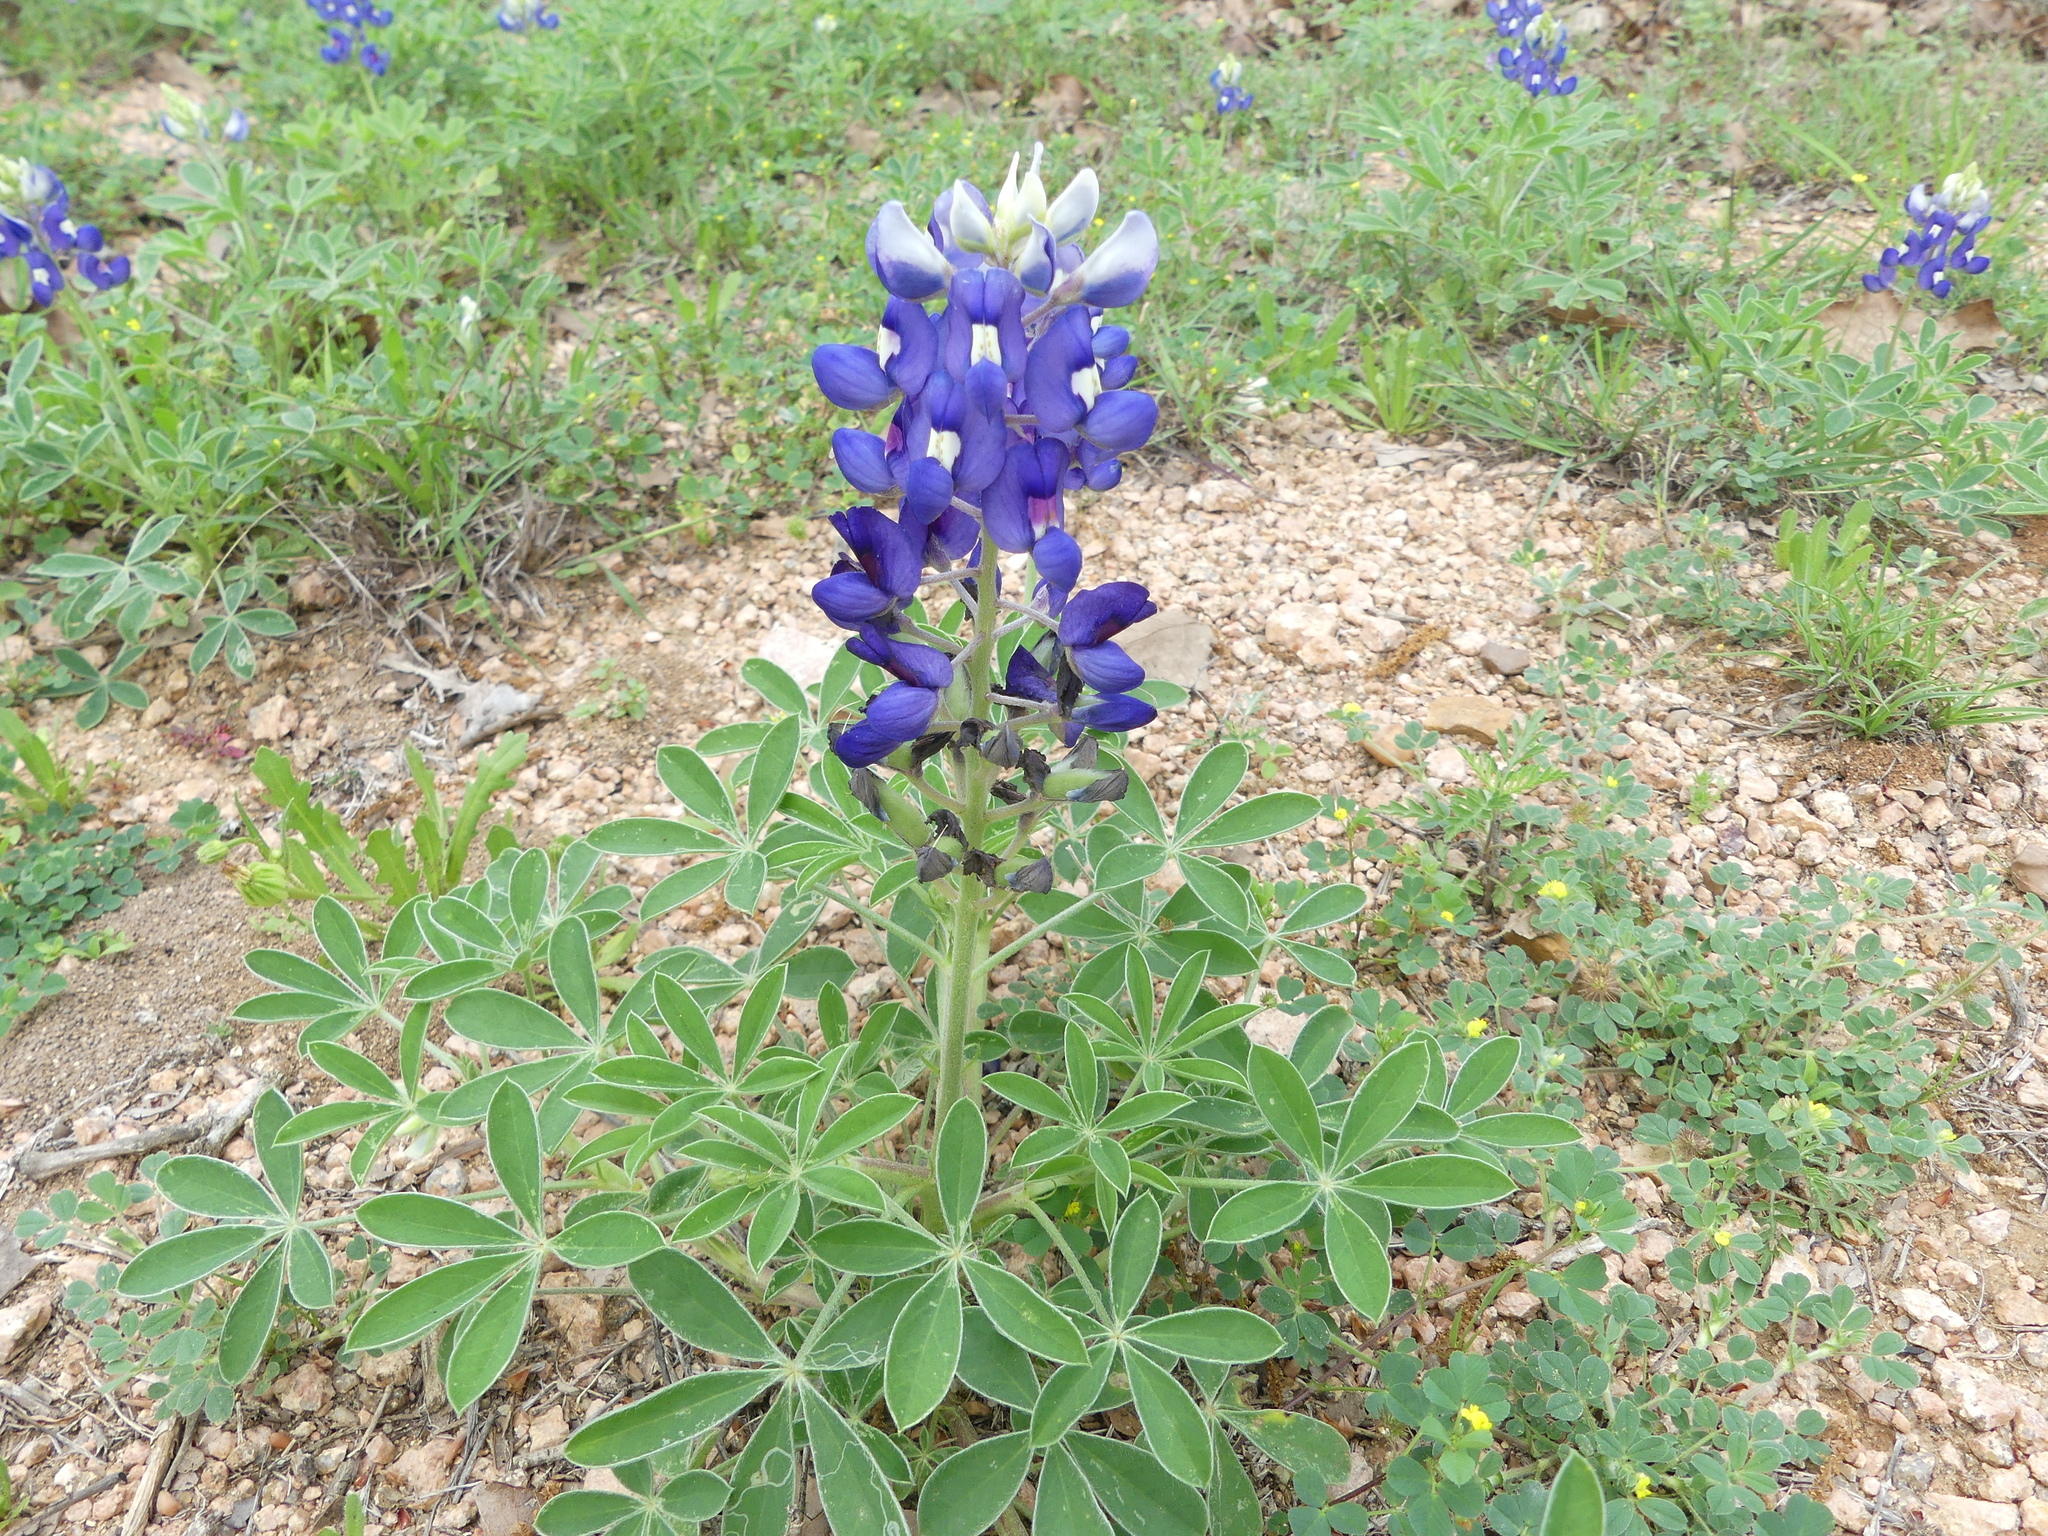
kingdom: Plantae
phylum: Tracheophyta
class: Magnoliopsida
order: Fabales
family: Fabaceae
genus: Lupinus
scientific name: Lupinus texensis
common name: Texas bluebonnet
